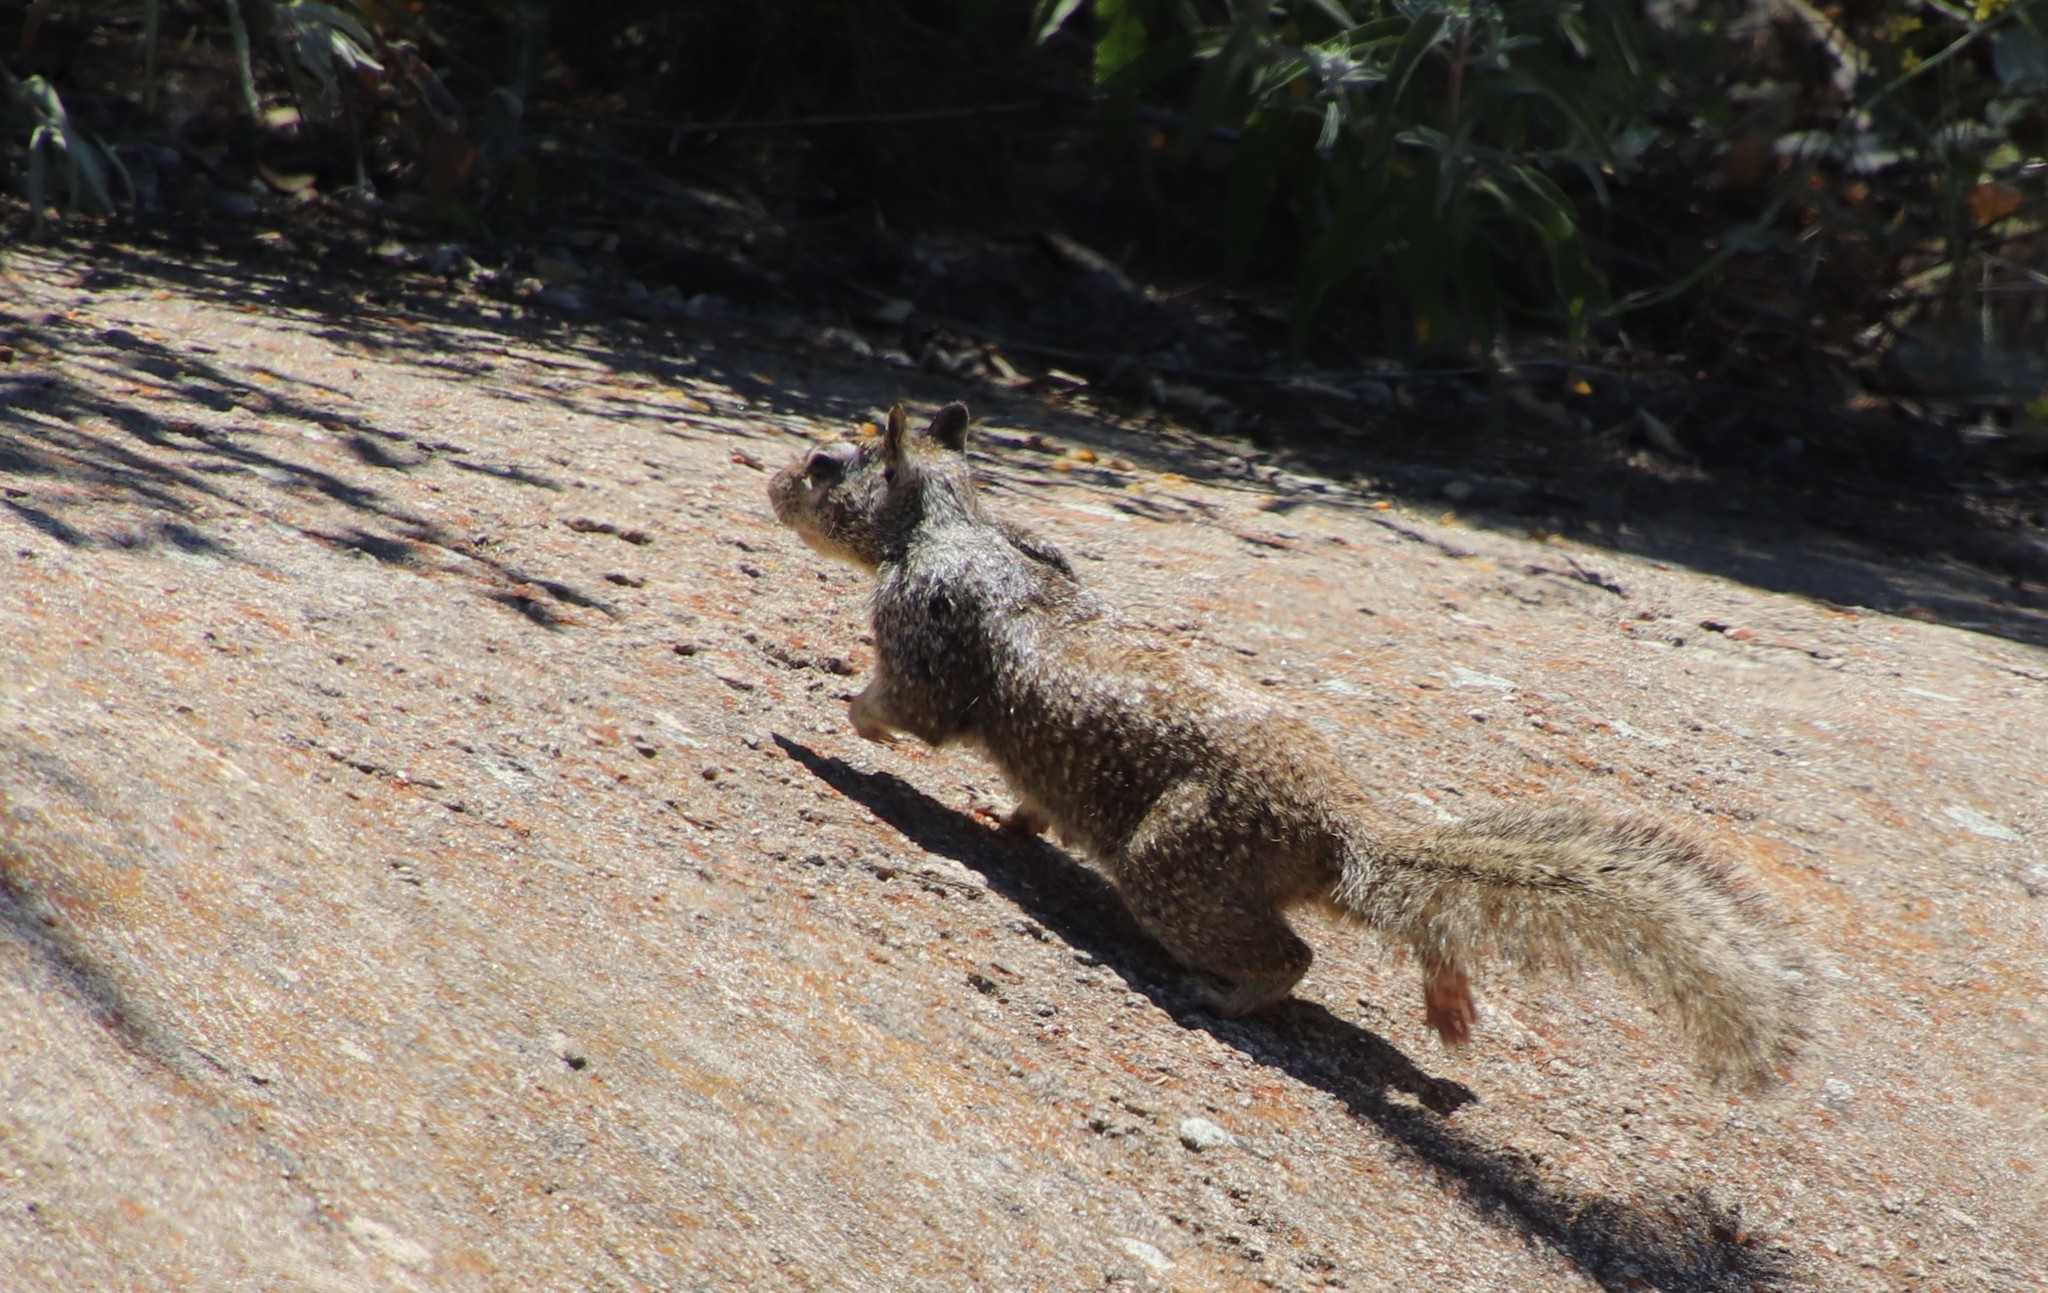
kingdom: Animalia
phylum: Chordata
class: Mammalia
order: Rodentia
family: Sciuridae
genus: Otospermophilus
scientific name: Otospermophilus beecheyi
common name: California ground squirrel
